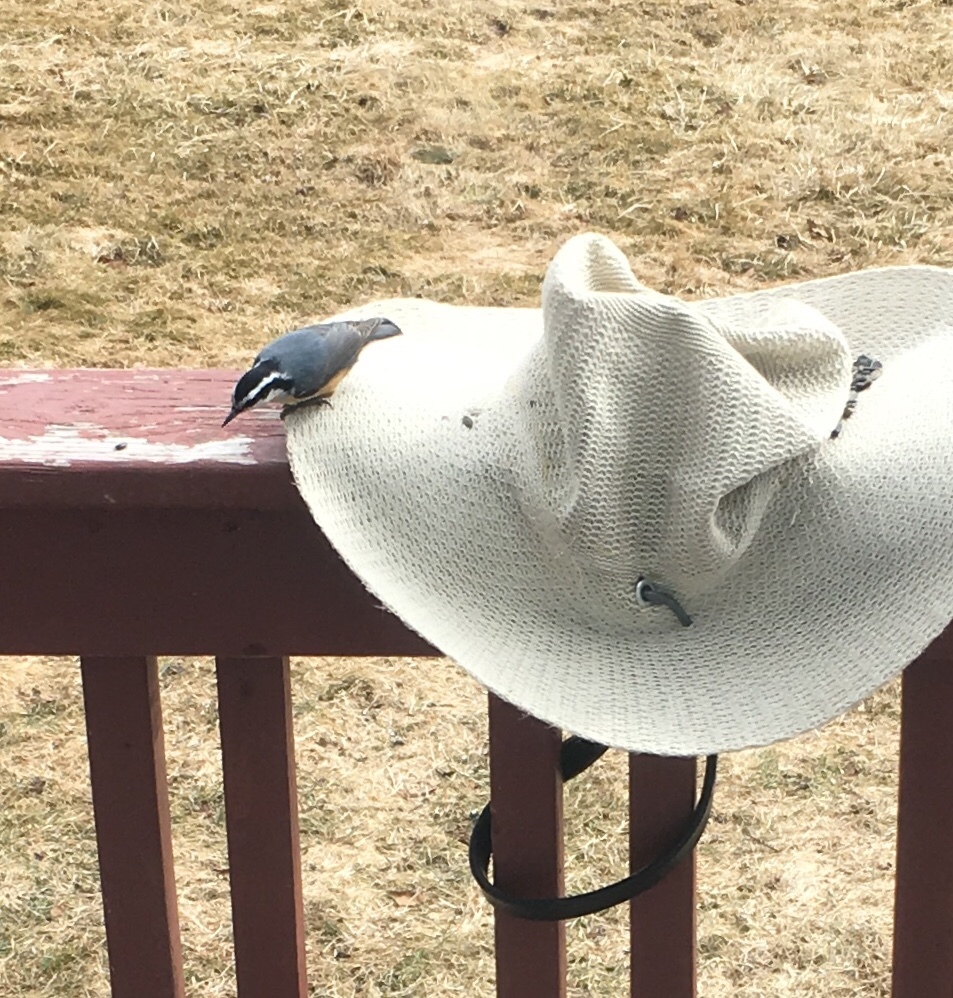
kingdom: Animalia
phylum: Chordata
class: Aves
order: Passeriformes
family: Sittidae
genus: Sitta
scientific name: Sitta canadensis
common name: Red-breasted nuthatch
